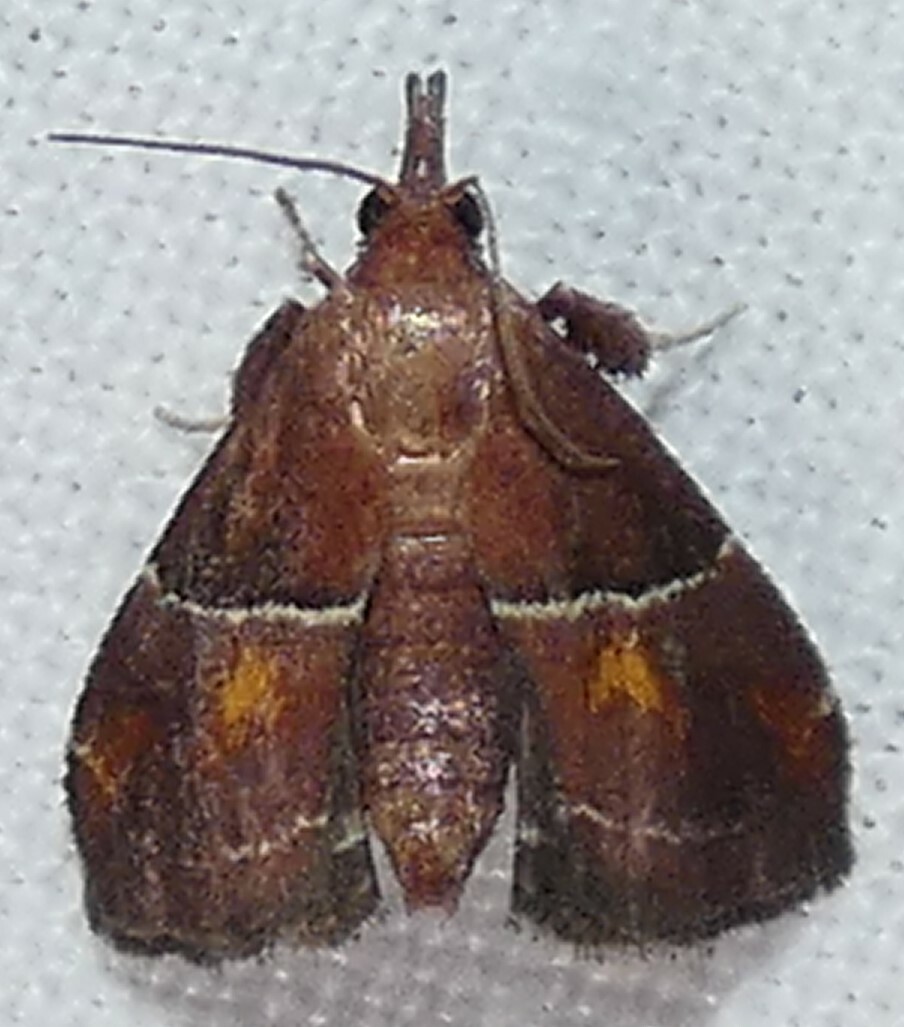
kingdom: Animalia
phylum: Arthropoda
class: Insecta
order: Lepidoptera
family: Pyralidae
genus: Penthesilea
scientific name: Penthesilea sacculalis
